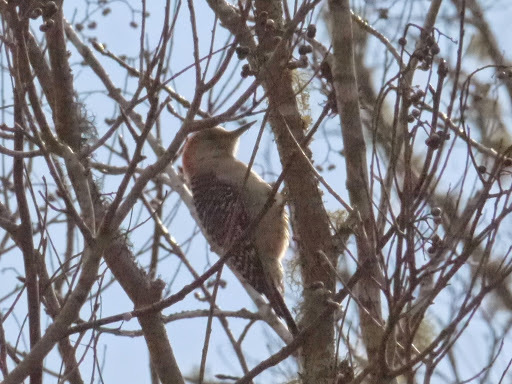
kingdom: Animalia
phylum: Chordata
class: Aves
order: Piciformes
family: Picidae
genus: Melanerpes
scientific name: Melanerpes carolinus
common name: Red-bellied woodpecker
